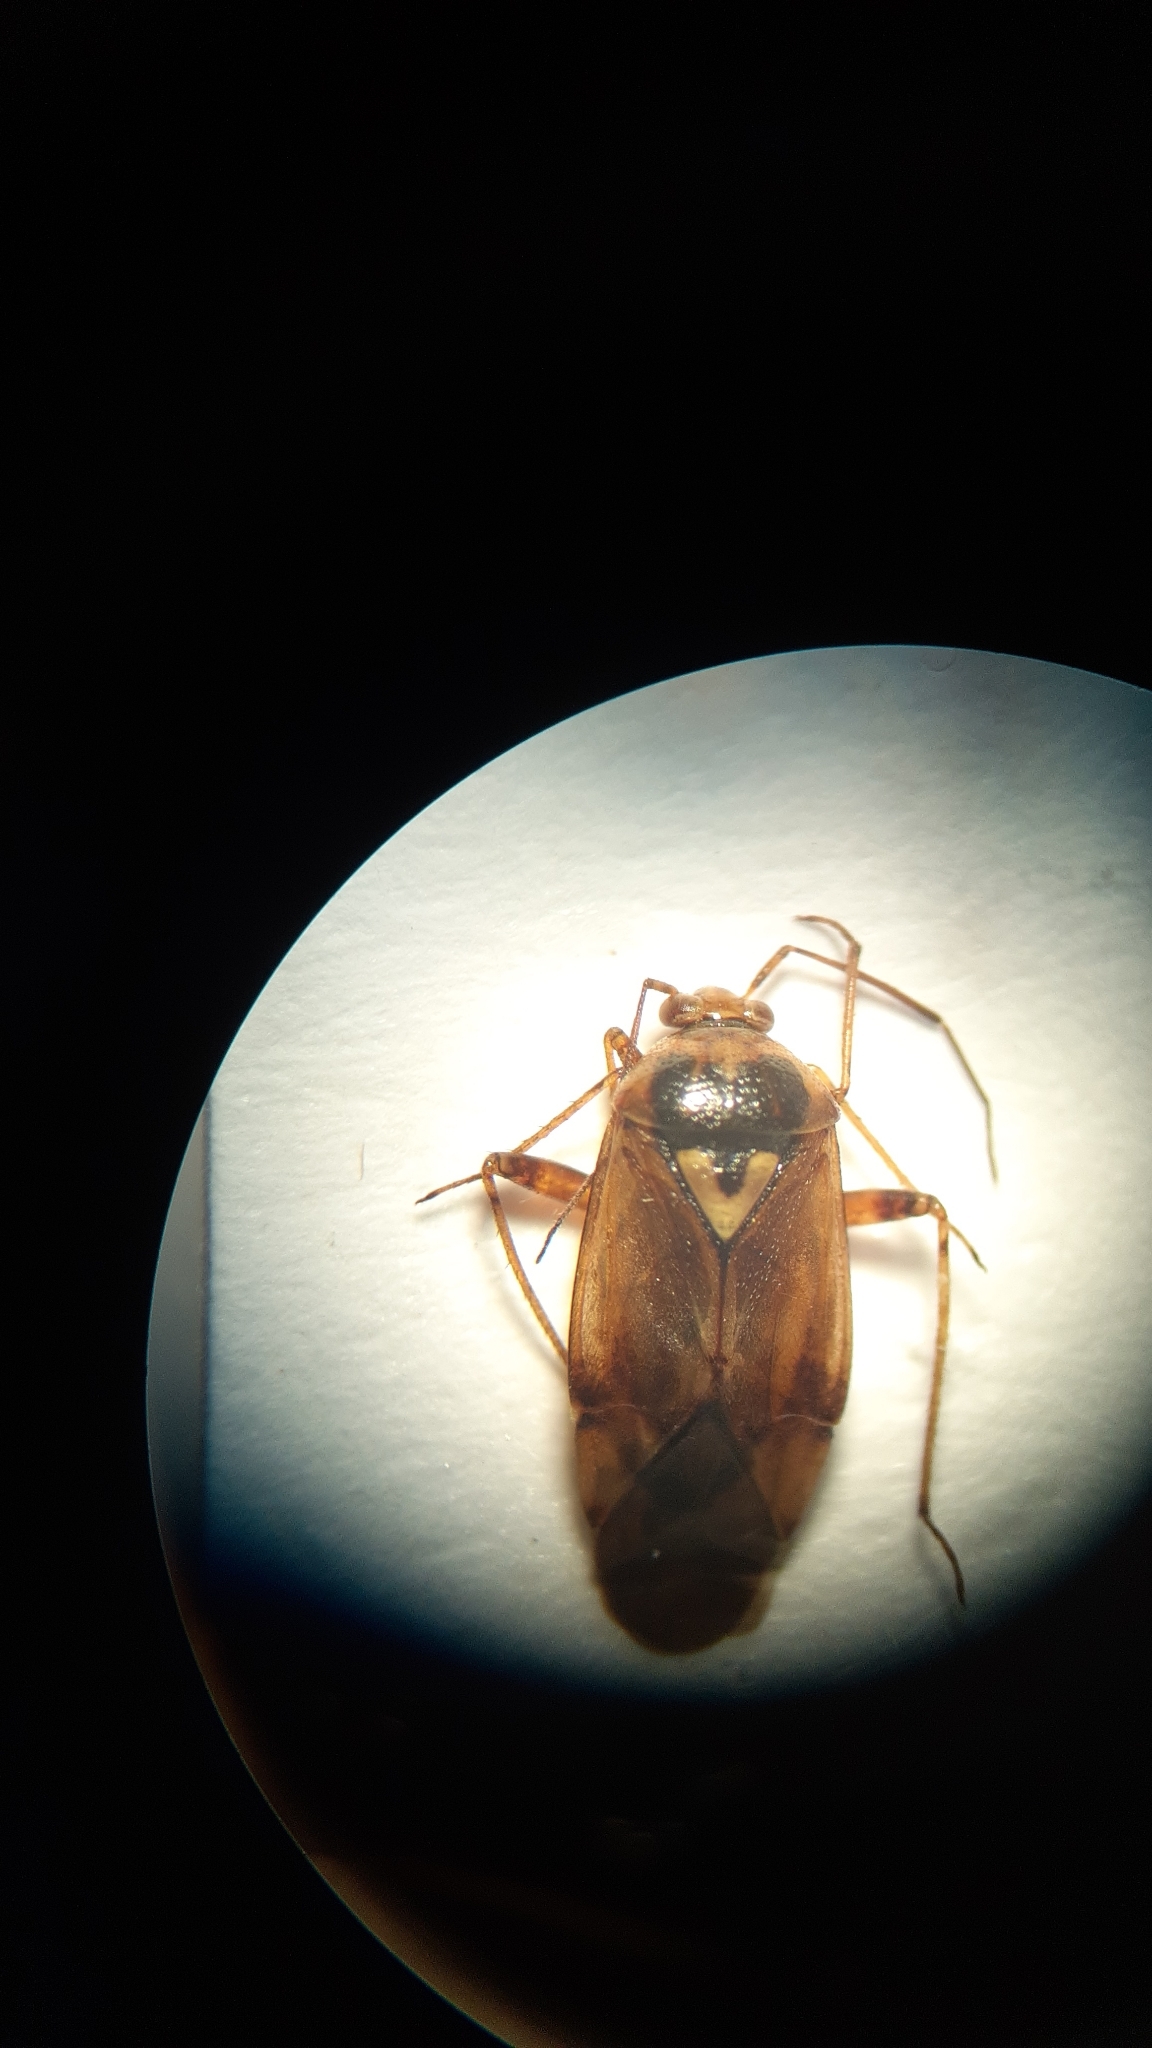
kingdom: Animalia
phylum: Arthropoda
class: Insecta
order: Hemiptera
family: Miridae
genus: Lygus
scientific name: Lygus pratensis
